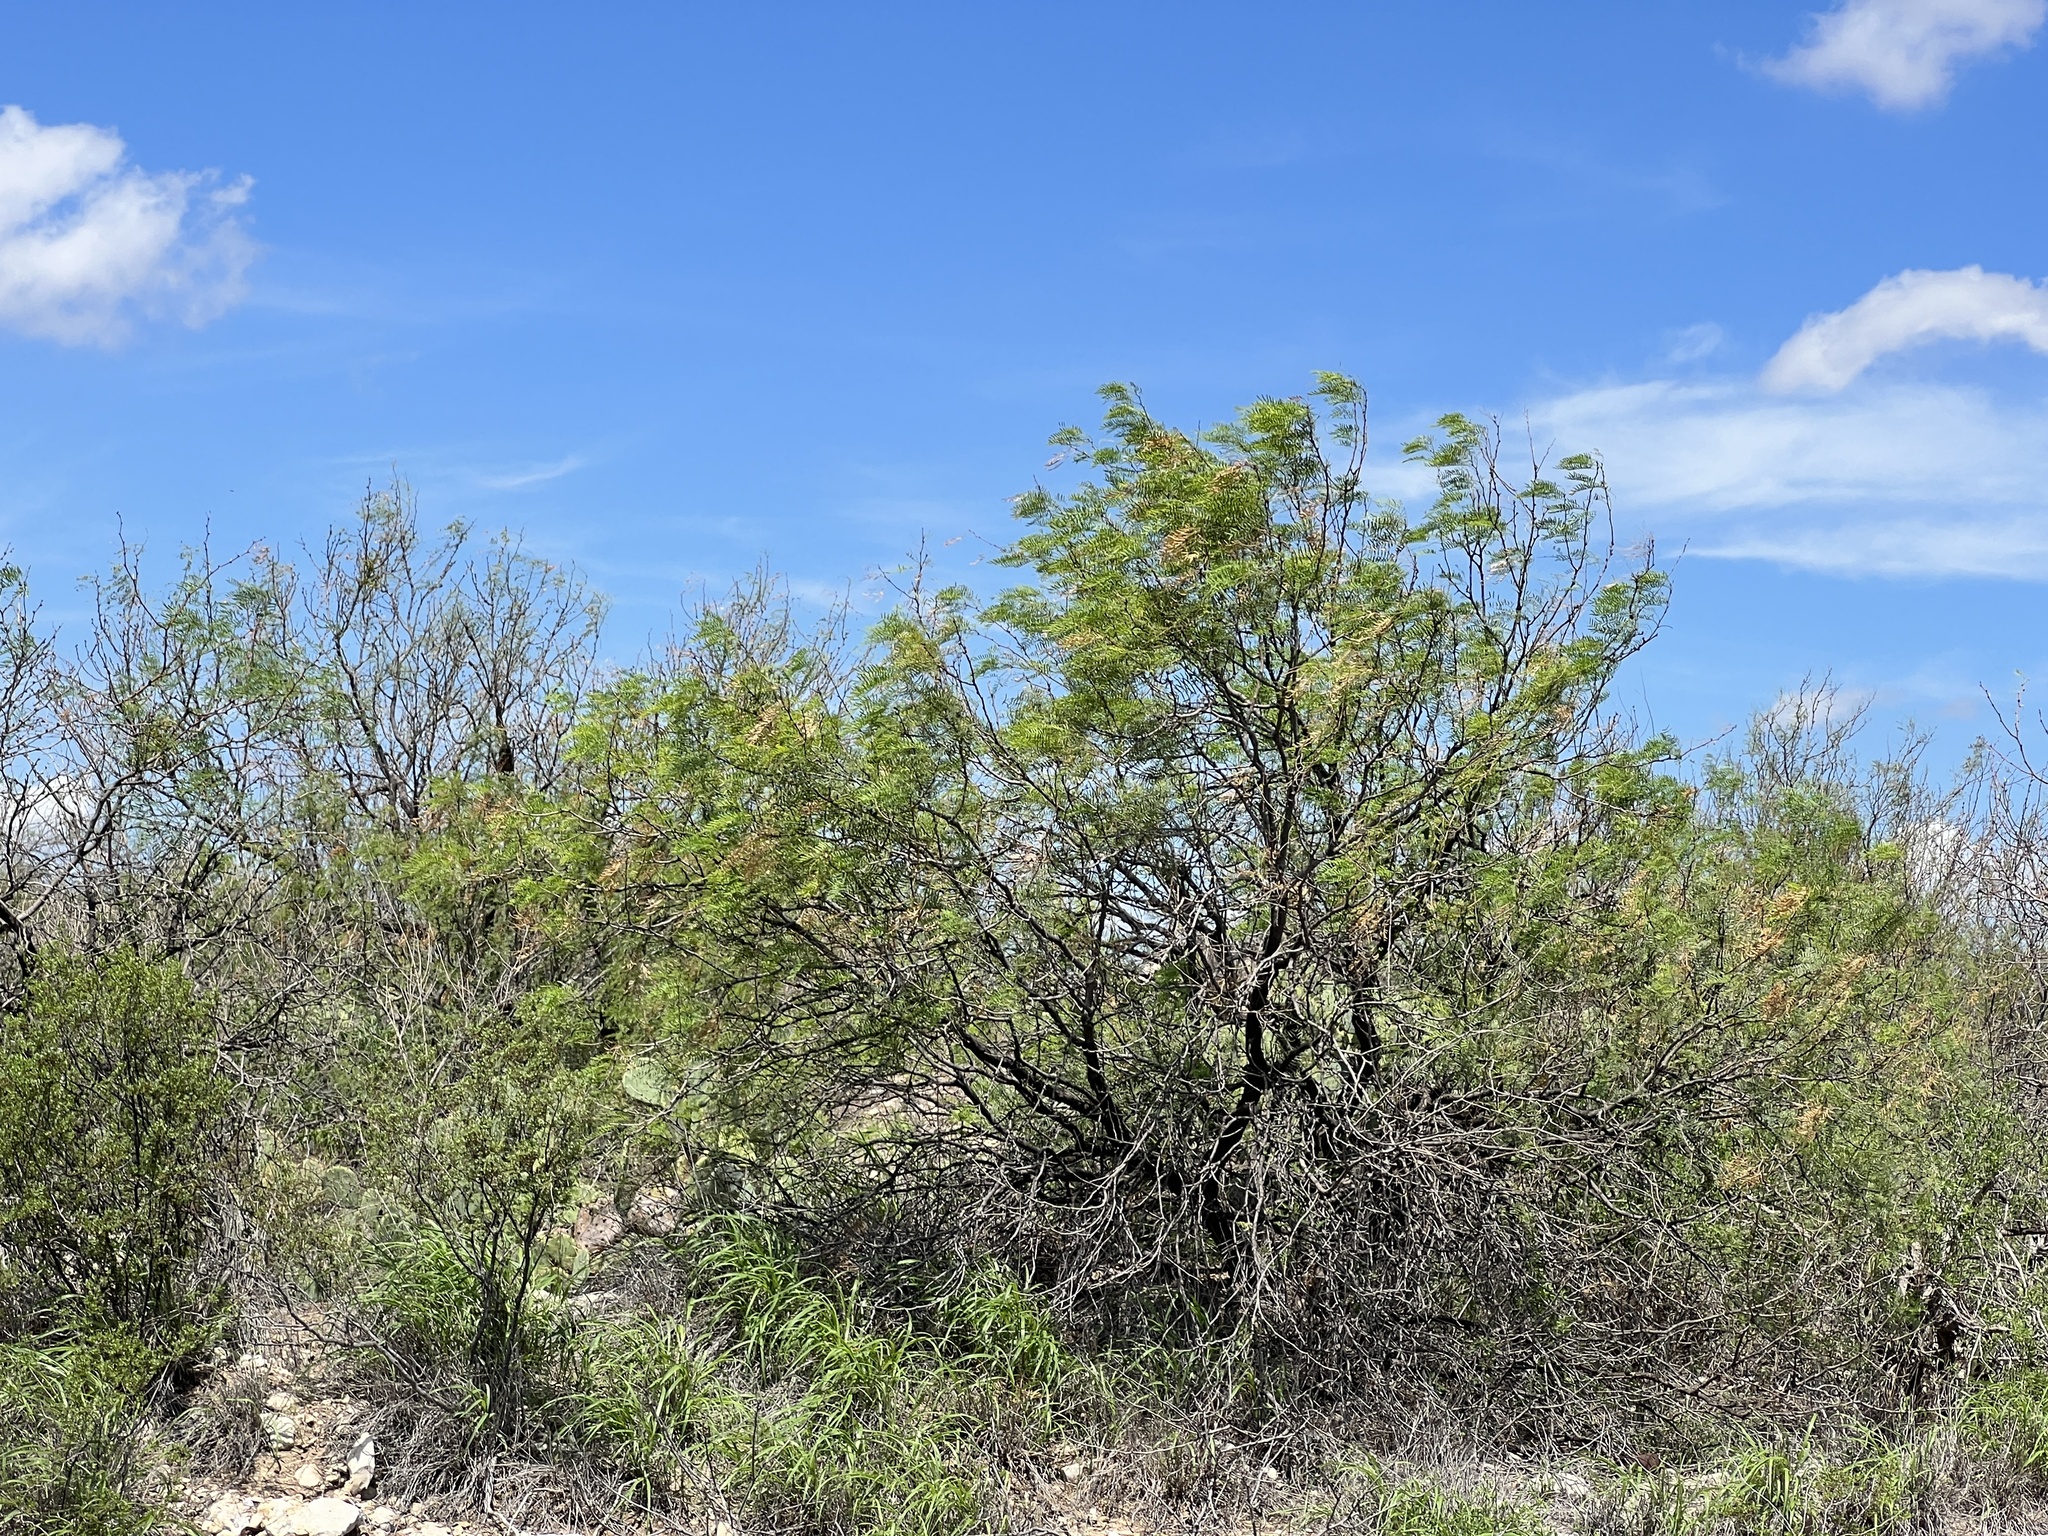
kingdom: Plantae
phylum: Tracheophyta
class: Magnoliopsida
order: Fabales
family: Fabaceae
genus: Prosopis
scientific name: Prosopis glandulosa
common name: Honey mesquite
